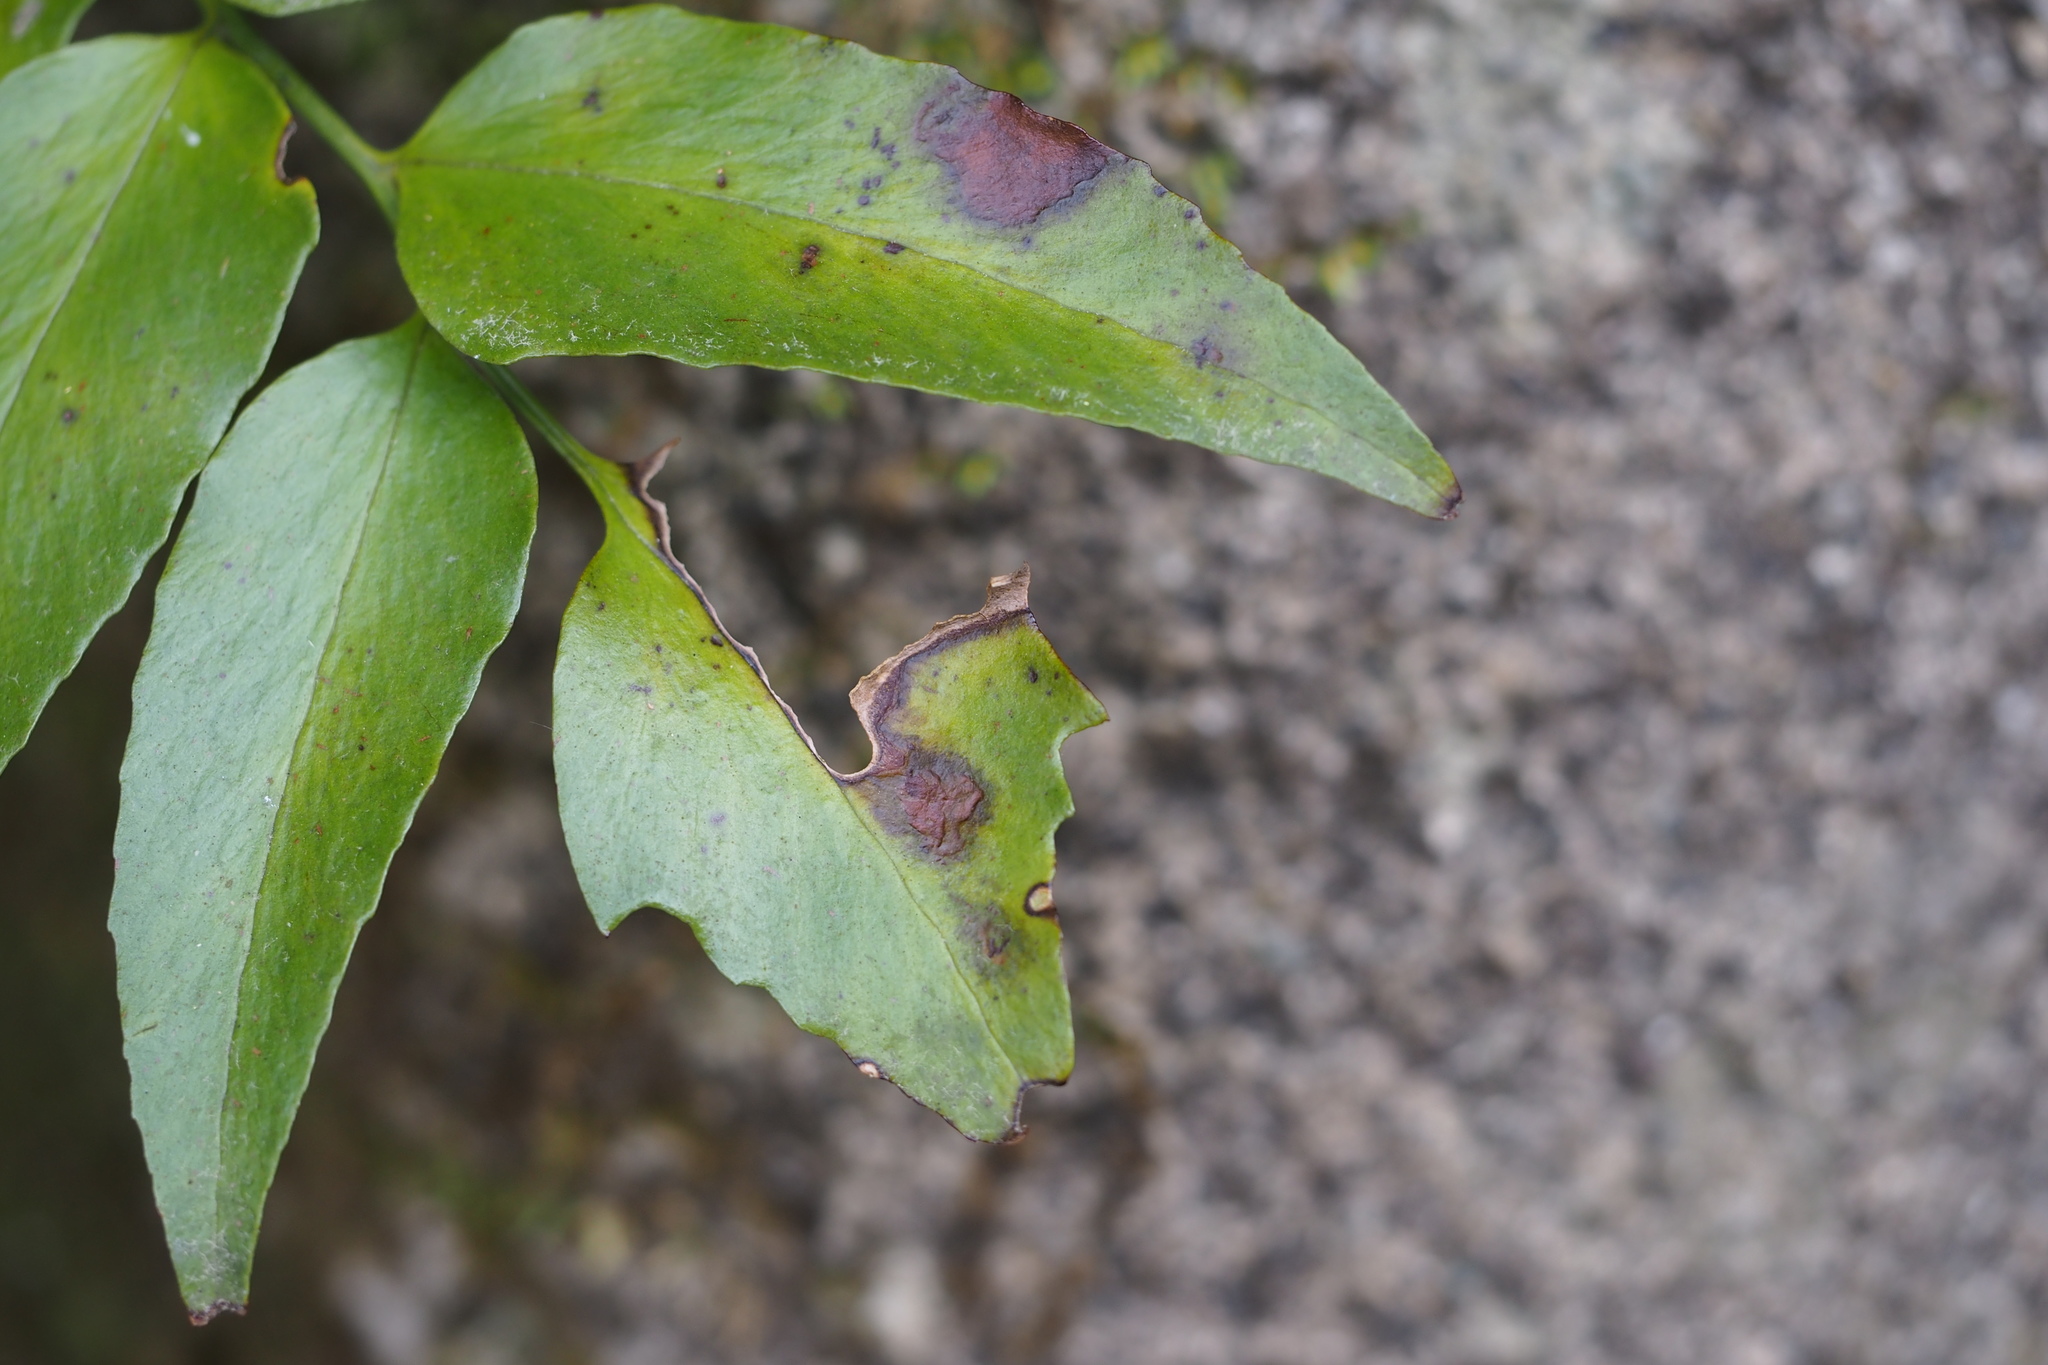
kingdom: Plantae
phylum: Tracheophyta
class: Polypodiopsida
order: Polypodiales
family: Dryopteridaceae
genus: Cyrtomium
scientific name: Cyrtomium falcatum
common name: House holly-fern
